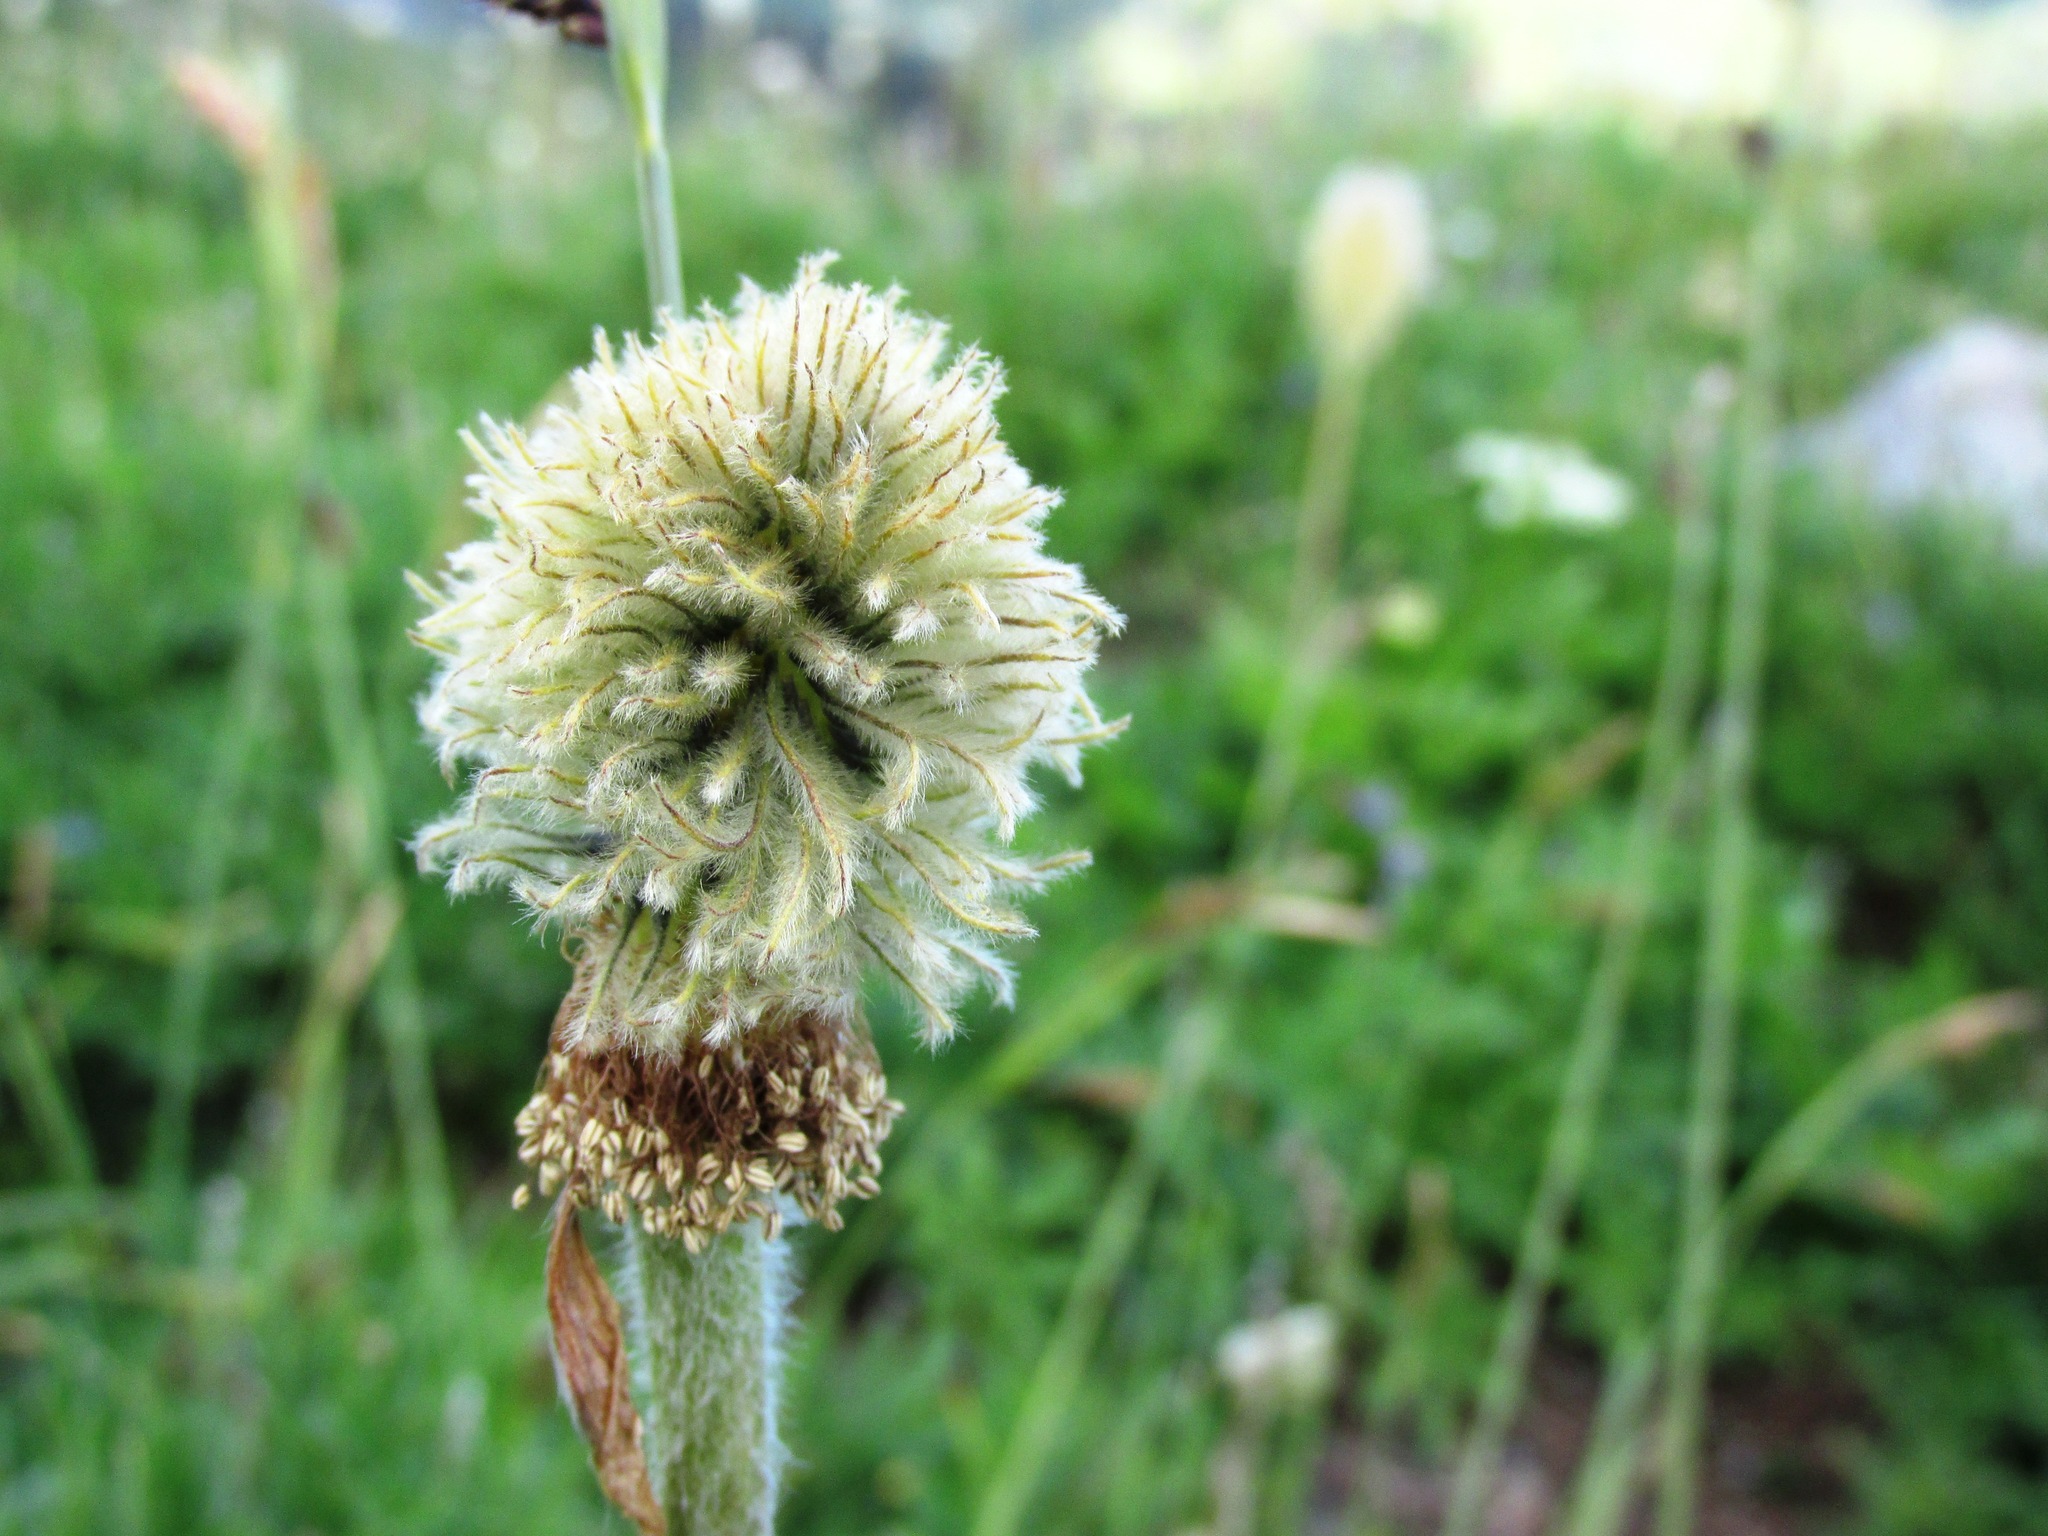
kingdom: Plantae
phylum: Tracheophyta
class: Magnoliopsida
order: Ranunculales
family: Ranunculaceae
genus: Pulsatilla
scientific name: Pulsatilla occidentalis
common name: Mountain pasqueflower
